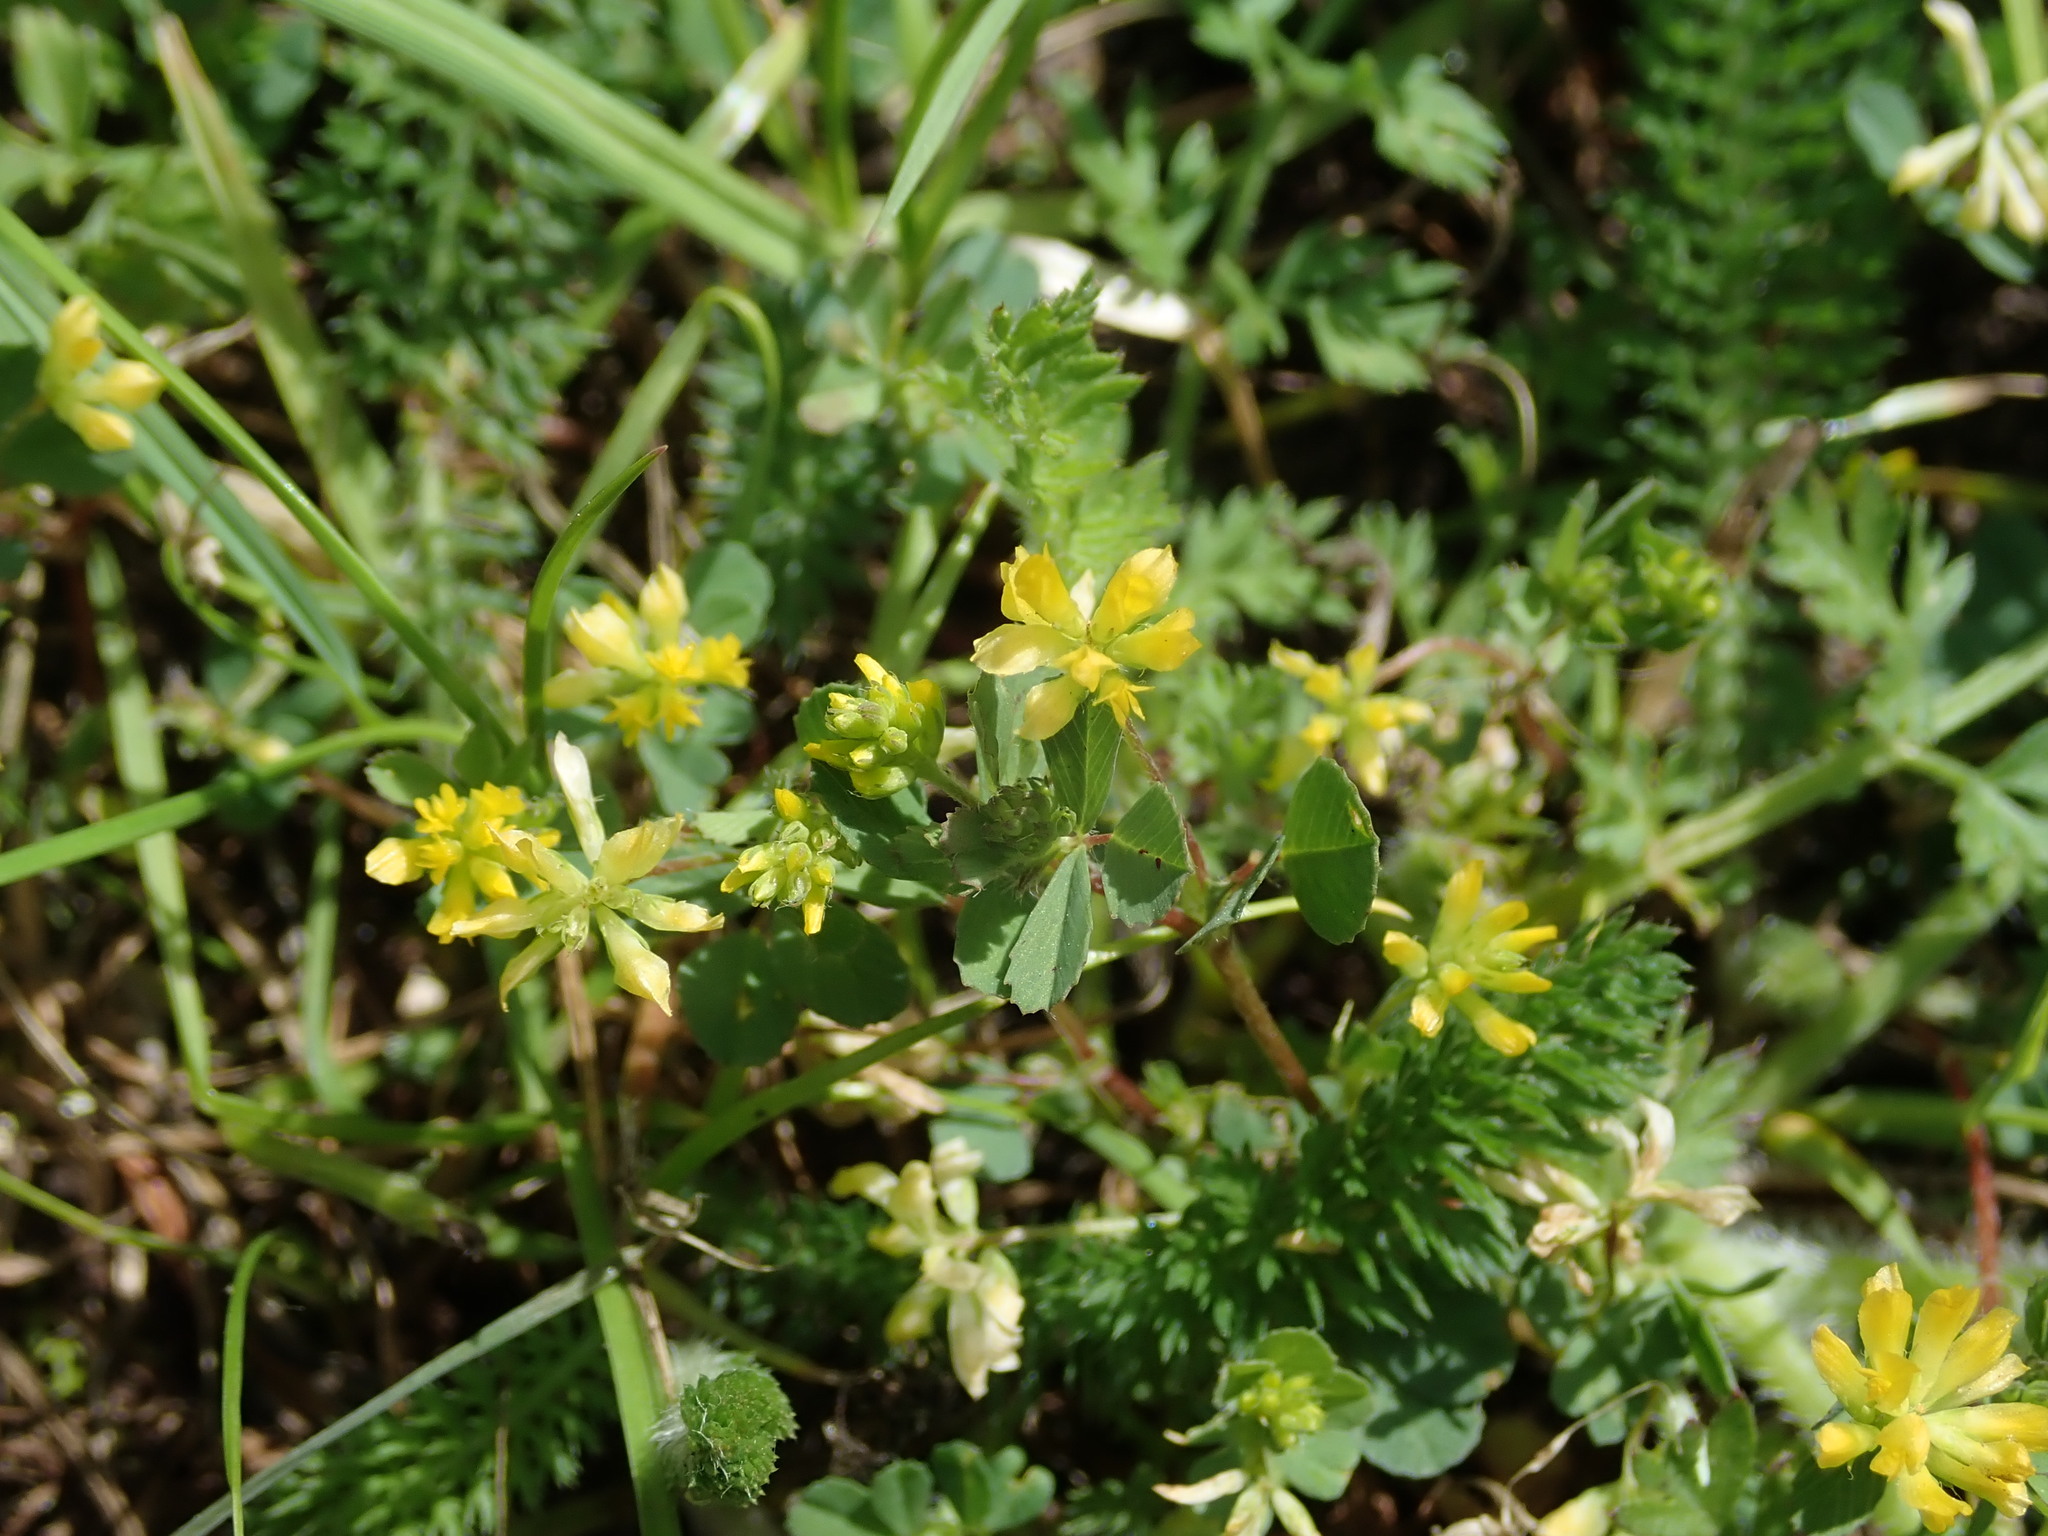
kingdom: Plantae
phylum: Tracheophyta
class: Magnoliopsida
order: Fabales
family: Fabaceae
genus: Trifolium
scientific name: Trifolium dubium
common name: Suckling clover
